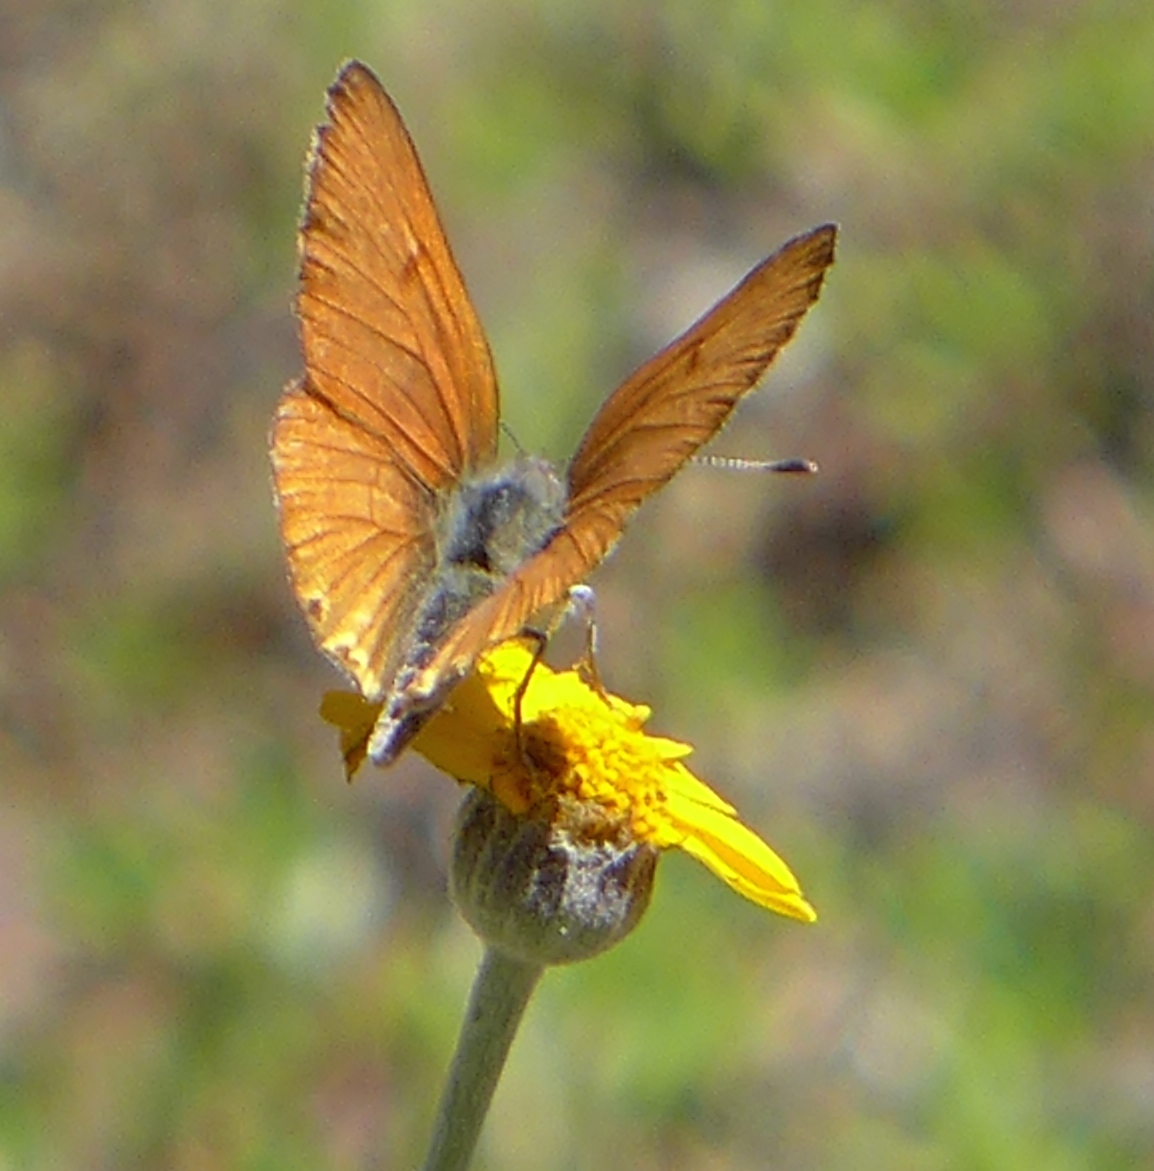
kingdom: Animalia
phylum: Arthropoda
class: Insecta
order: Lepidoptera
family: Lycaenidae
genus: Tharsalea
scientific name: Tharsalea gorgon
